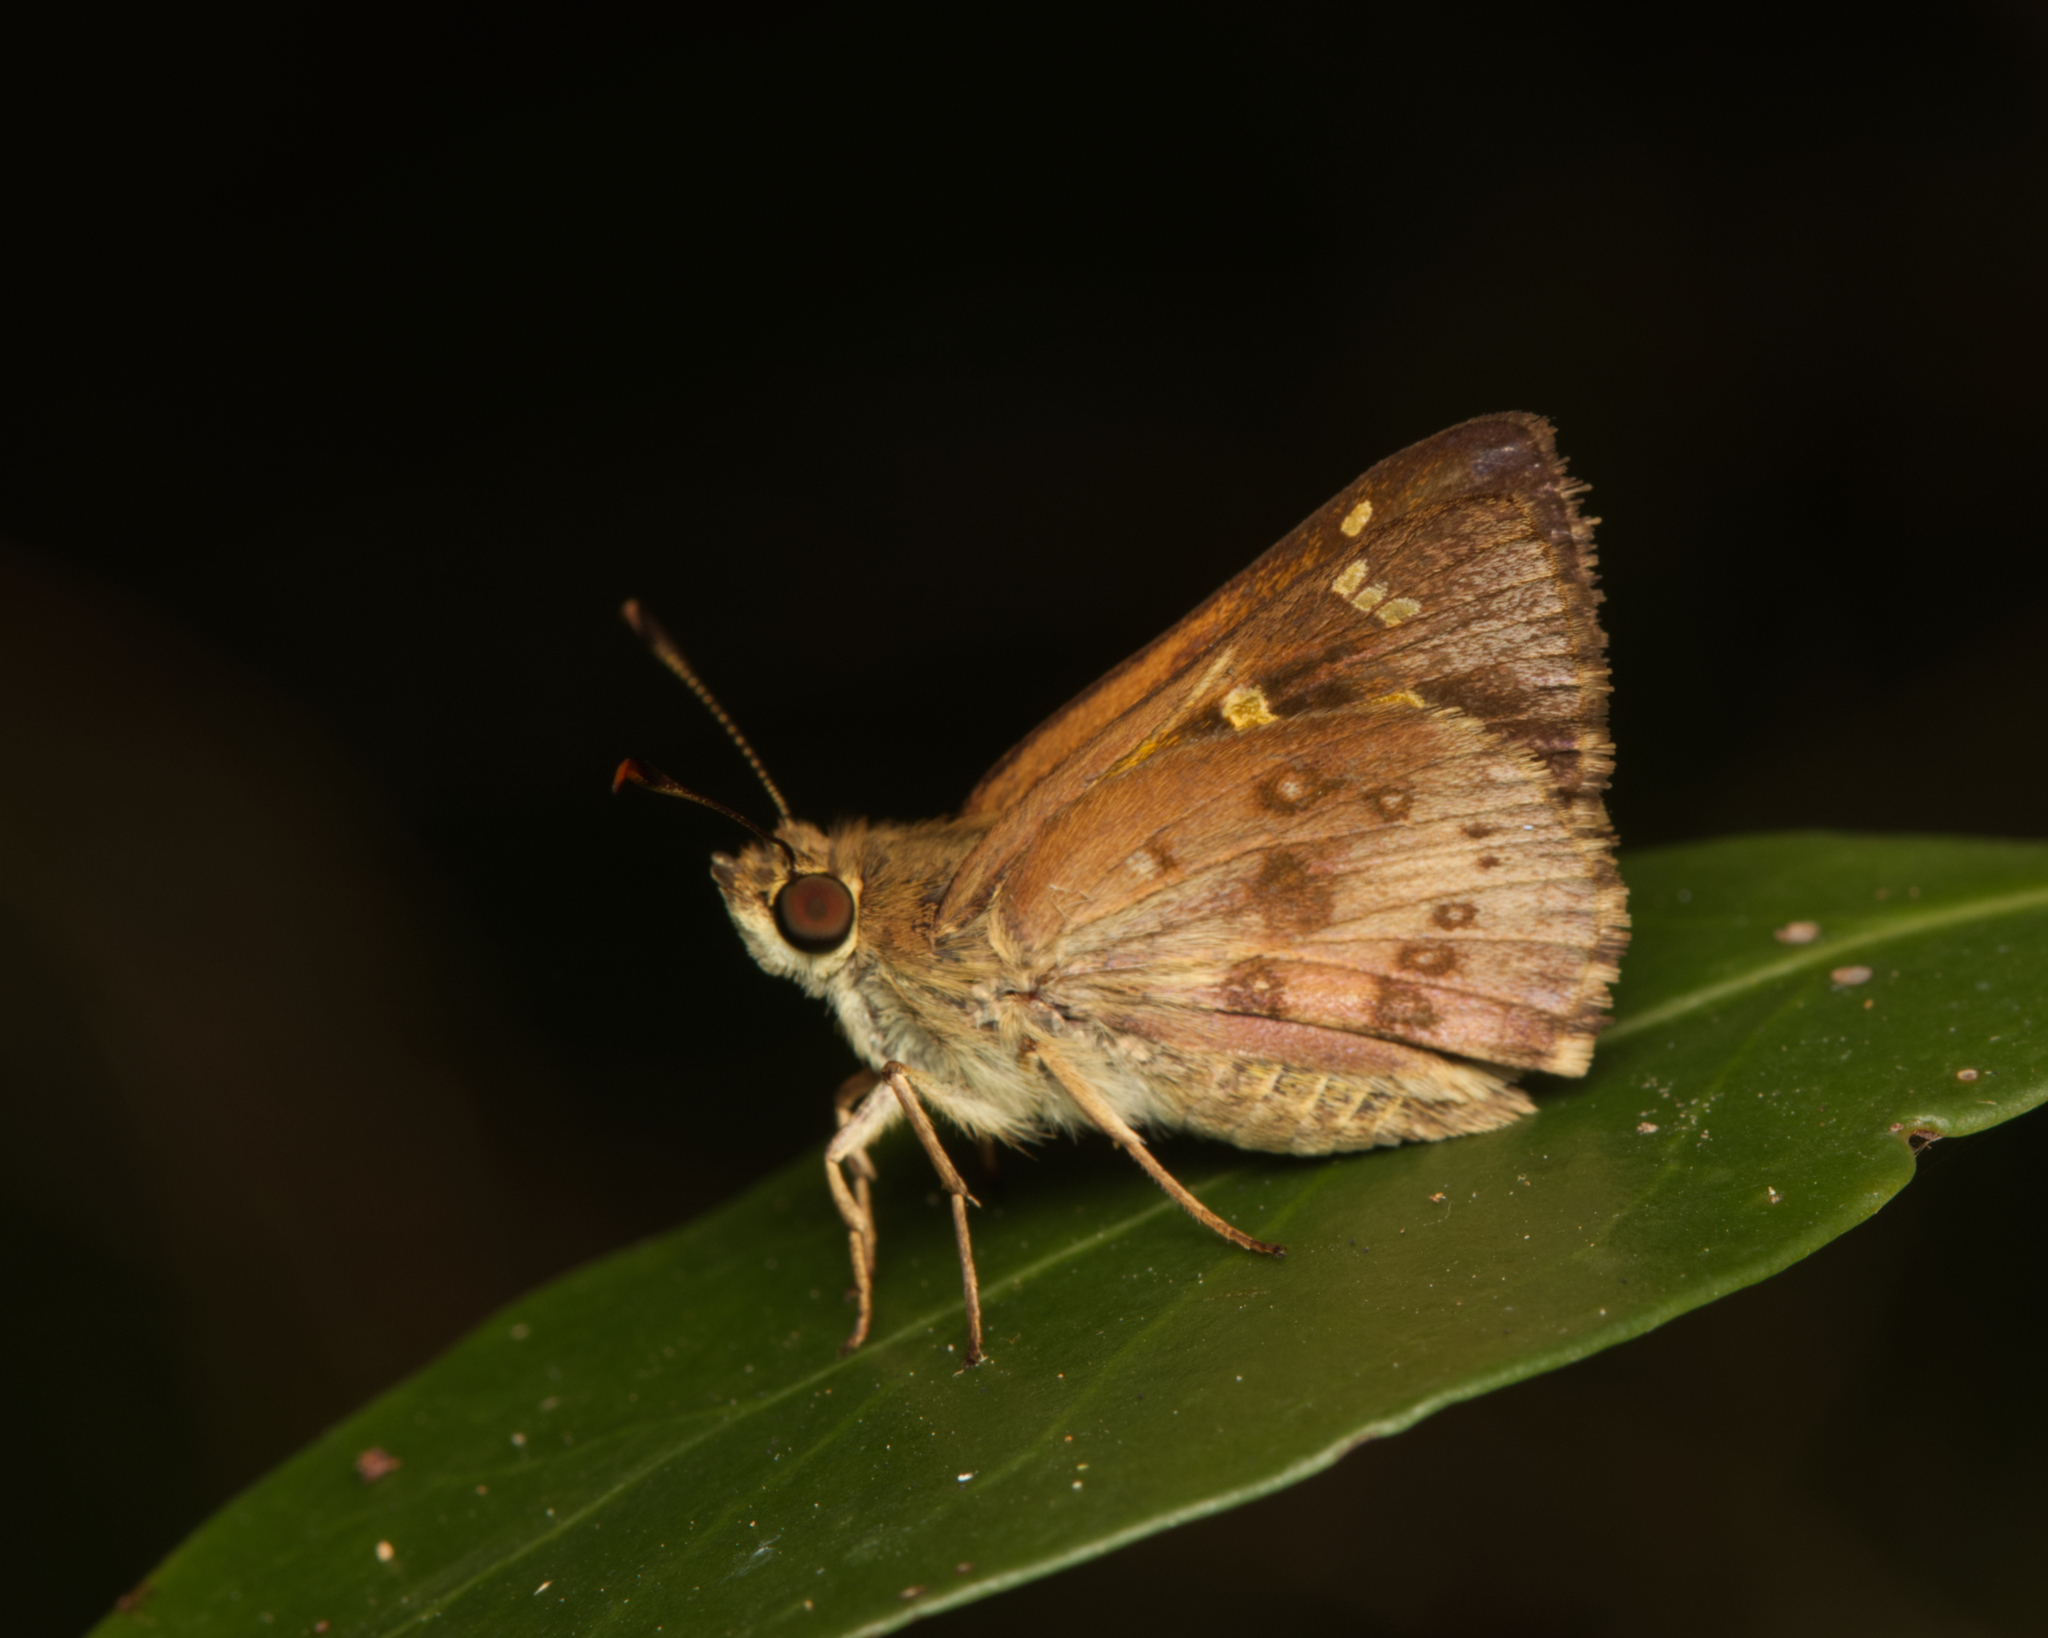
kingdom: Animalia
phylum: Arthropoda
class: Insecta
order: Lepidoptera
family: Hesperiidae
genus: Trapezites
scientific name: Trapezites maheta
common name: Northern silver ochre
